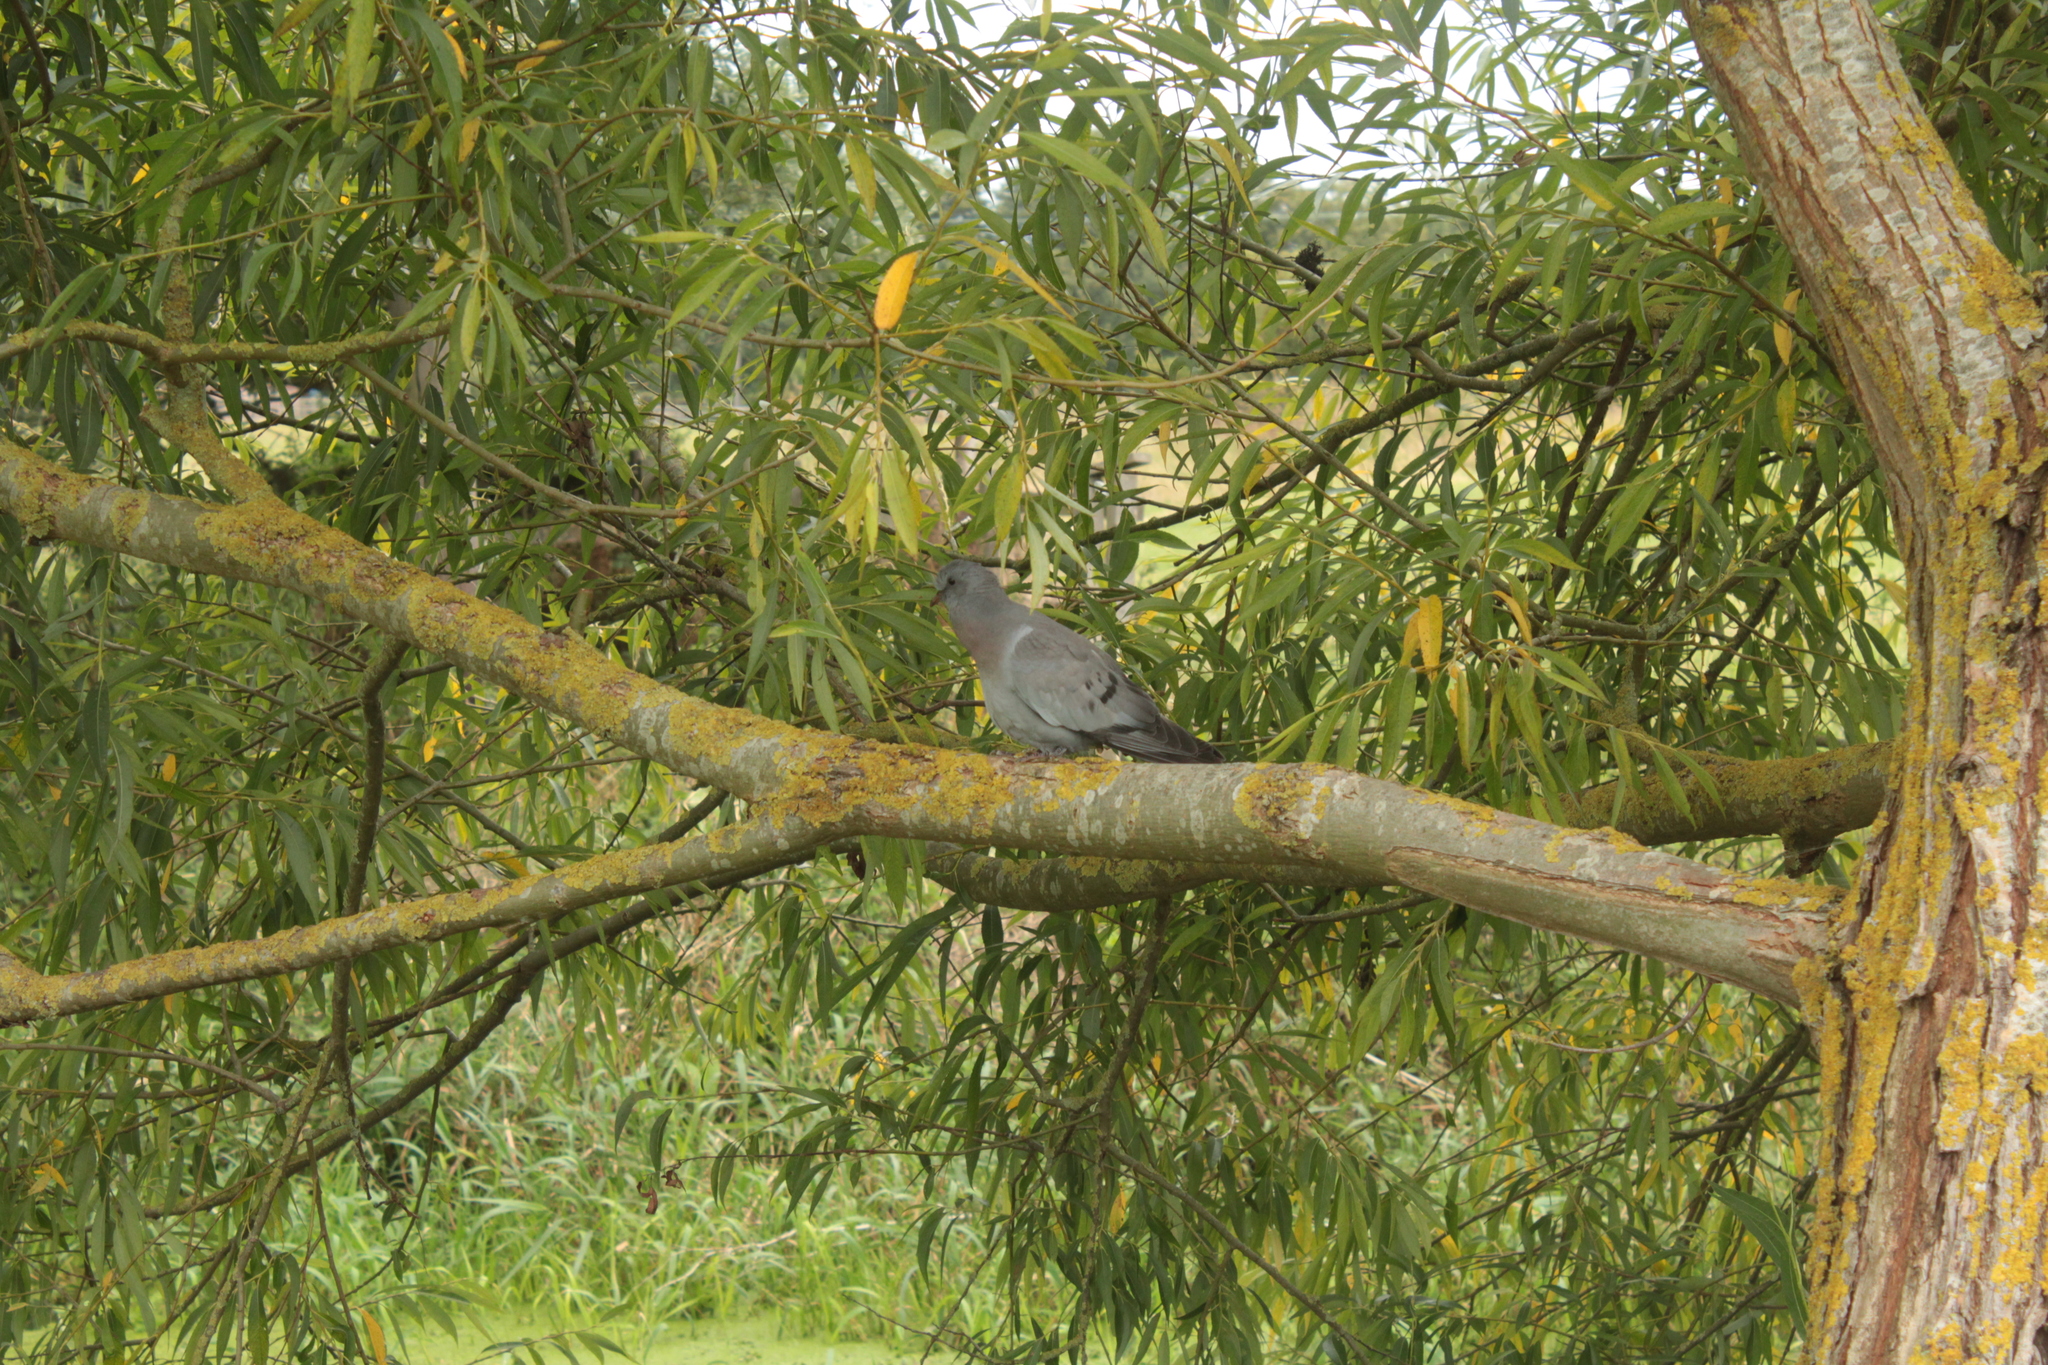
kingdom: Animalia
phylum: Chordata
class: Aves
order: Columbiformes
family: Columbidae
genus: Columba
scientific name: Columba oenas
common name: Stock dove
